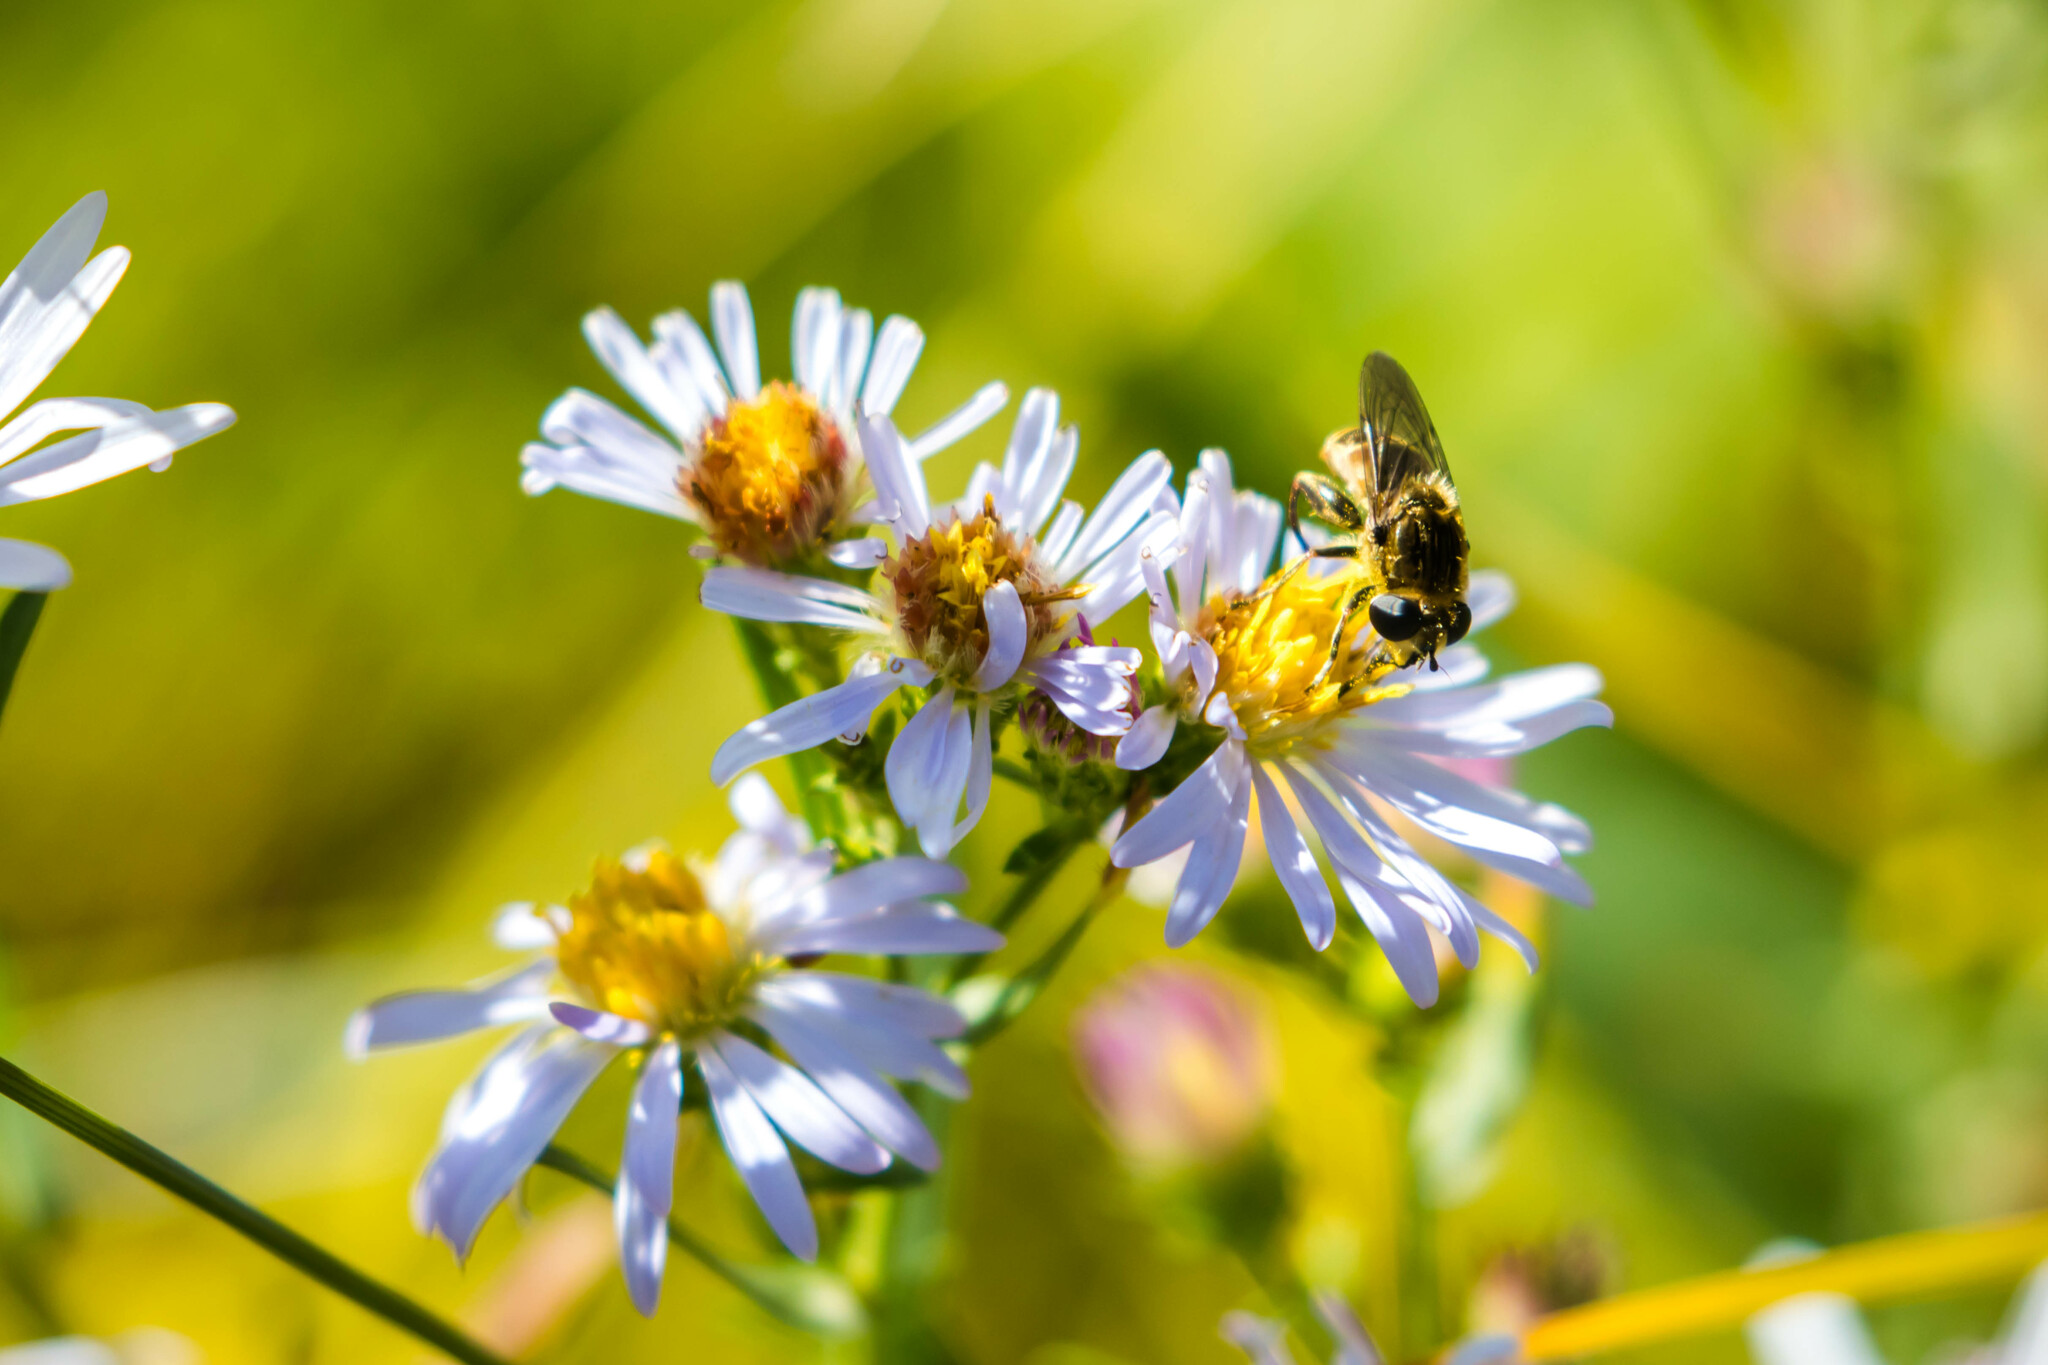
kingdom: Animalia
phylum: Arthropoda
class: Insecta
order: Diptera
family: Syrphidae
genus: Asemosyrphus
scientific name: Asemosyrphus polygrammus
